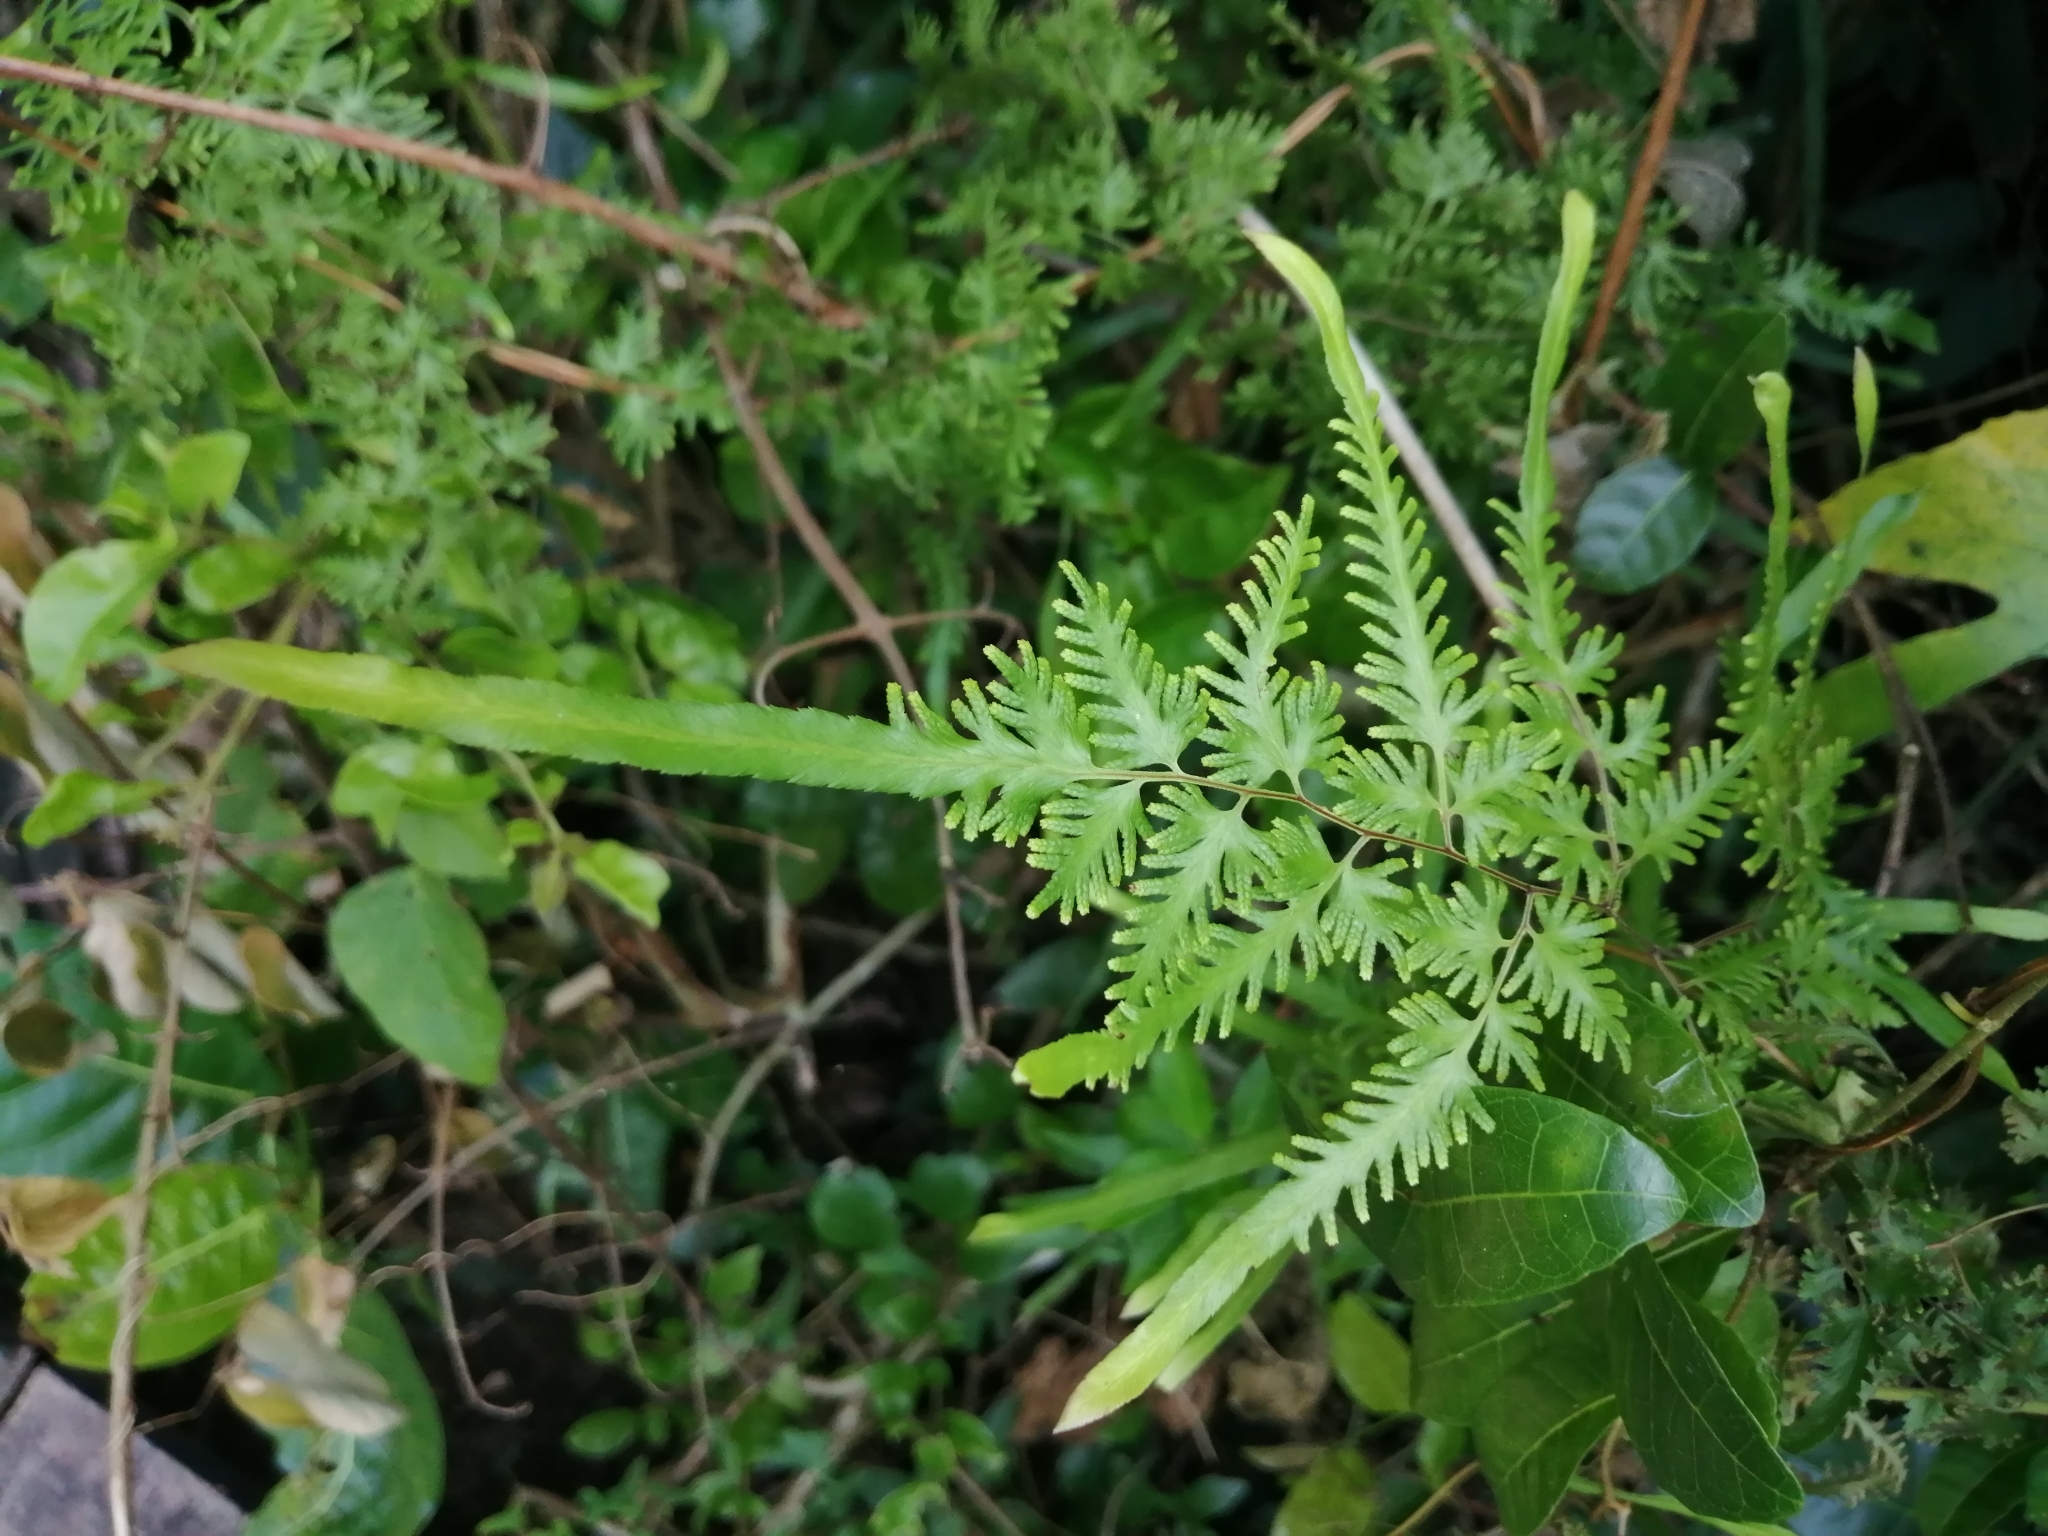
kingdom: Plantae
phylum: Tracheophyta
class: Polypodiopsida
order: Schizaeales
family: Lygodiaceae
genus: Lygodium
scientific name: Lygodium japonicum
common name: Japanese climbing fern
